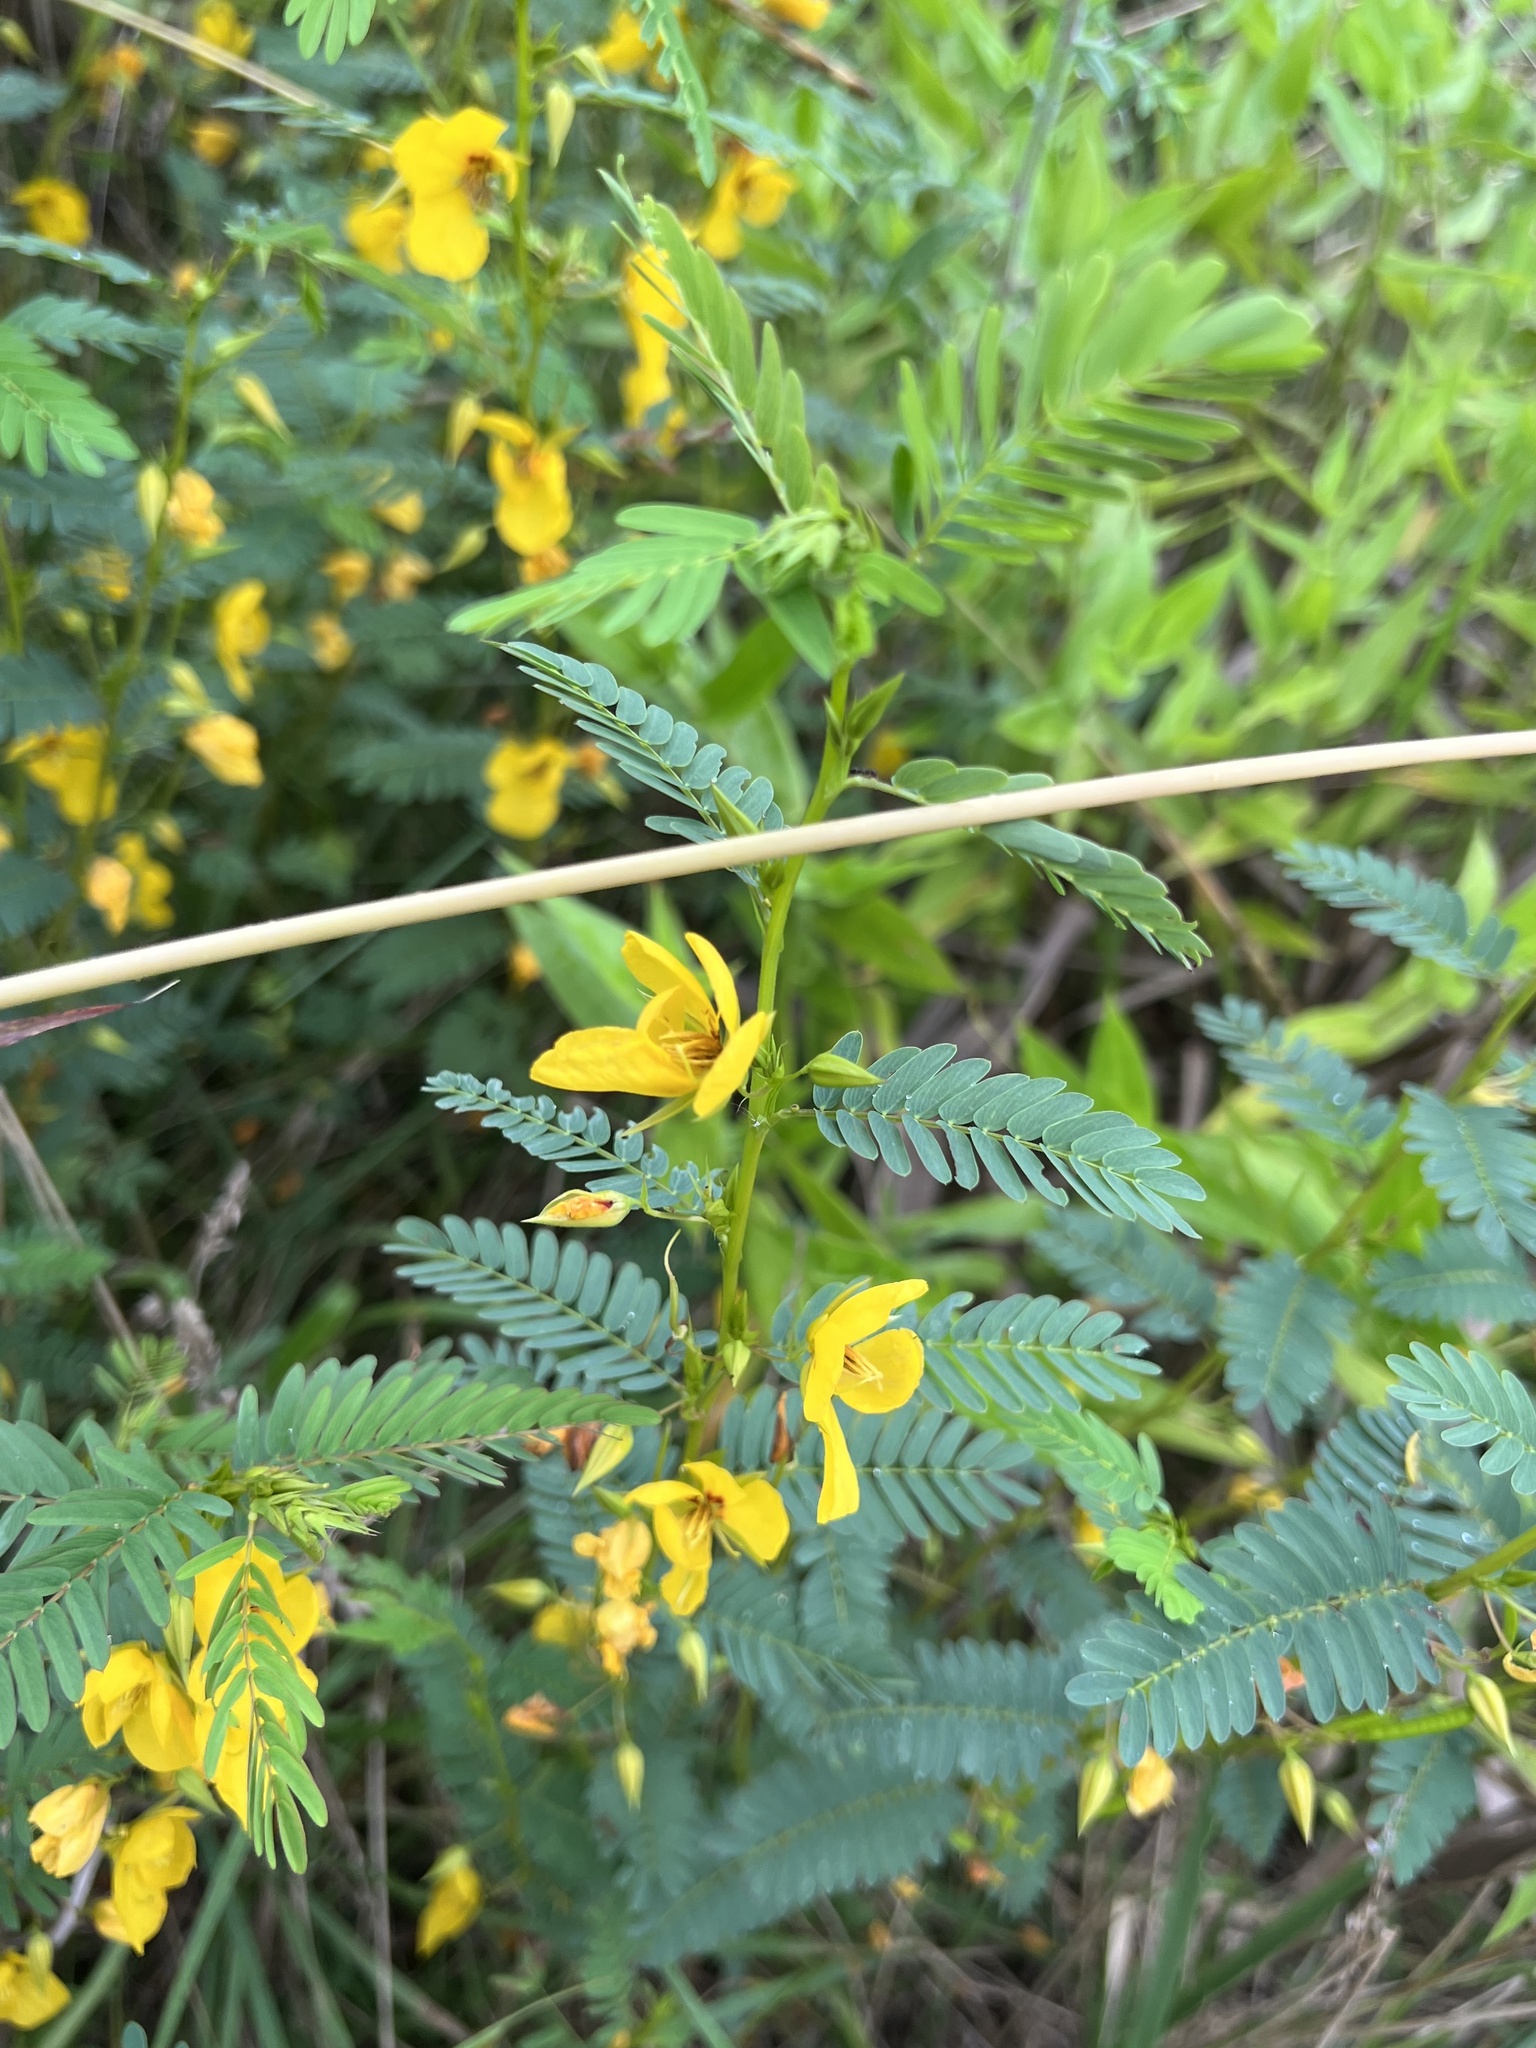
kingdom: Plantae
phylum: Tracheophyta
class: Magnoliopsida
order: Fabales
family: Fabaceae
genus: Chamaecrista
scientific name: Chamaecrista fasciculata
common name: Golden cassia
